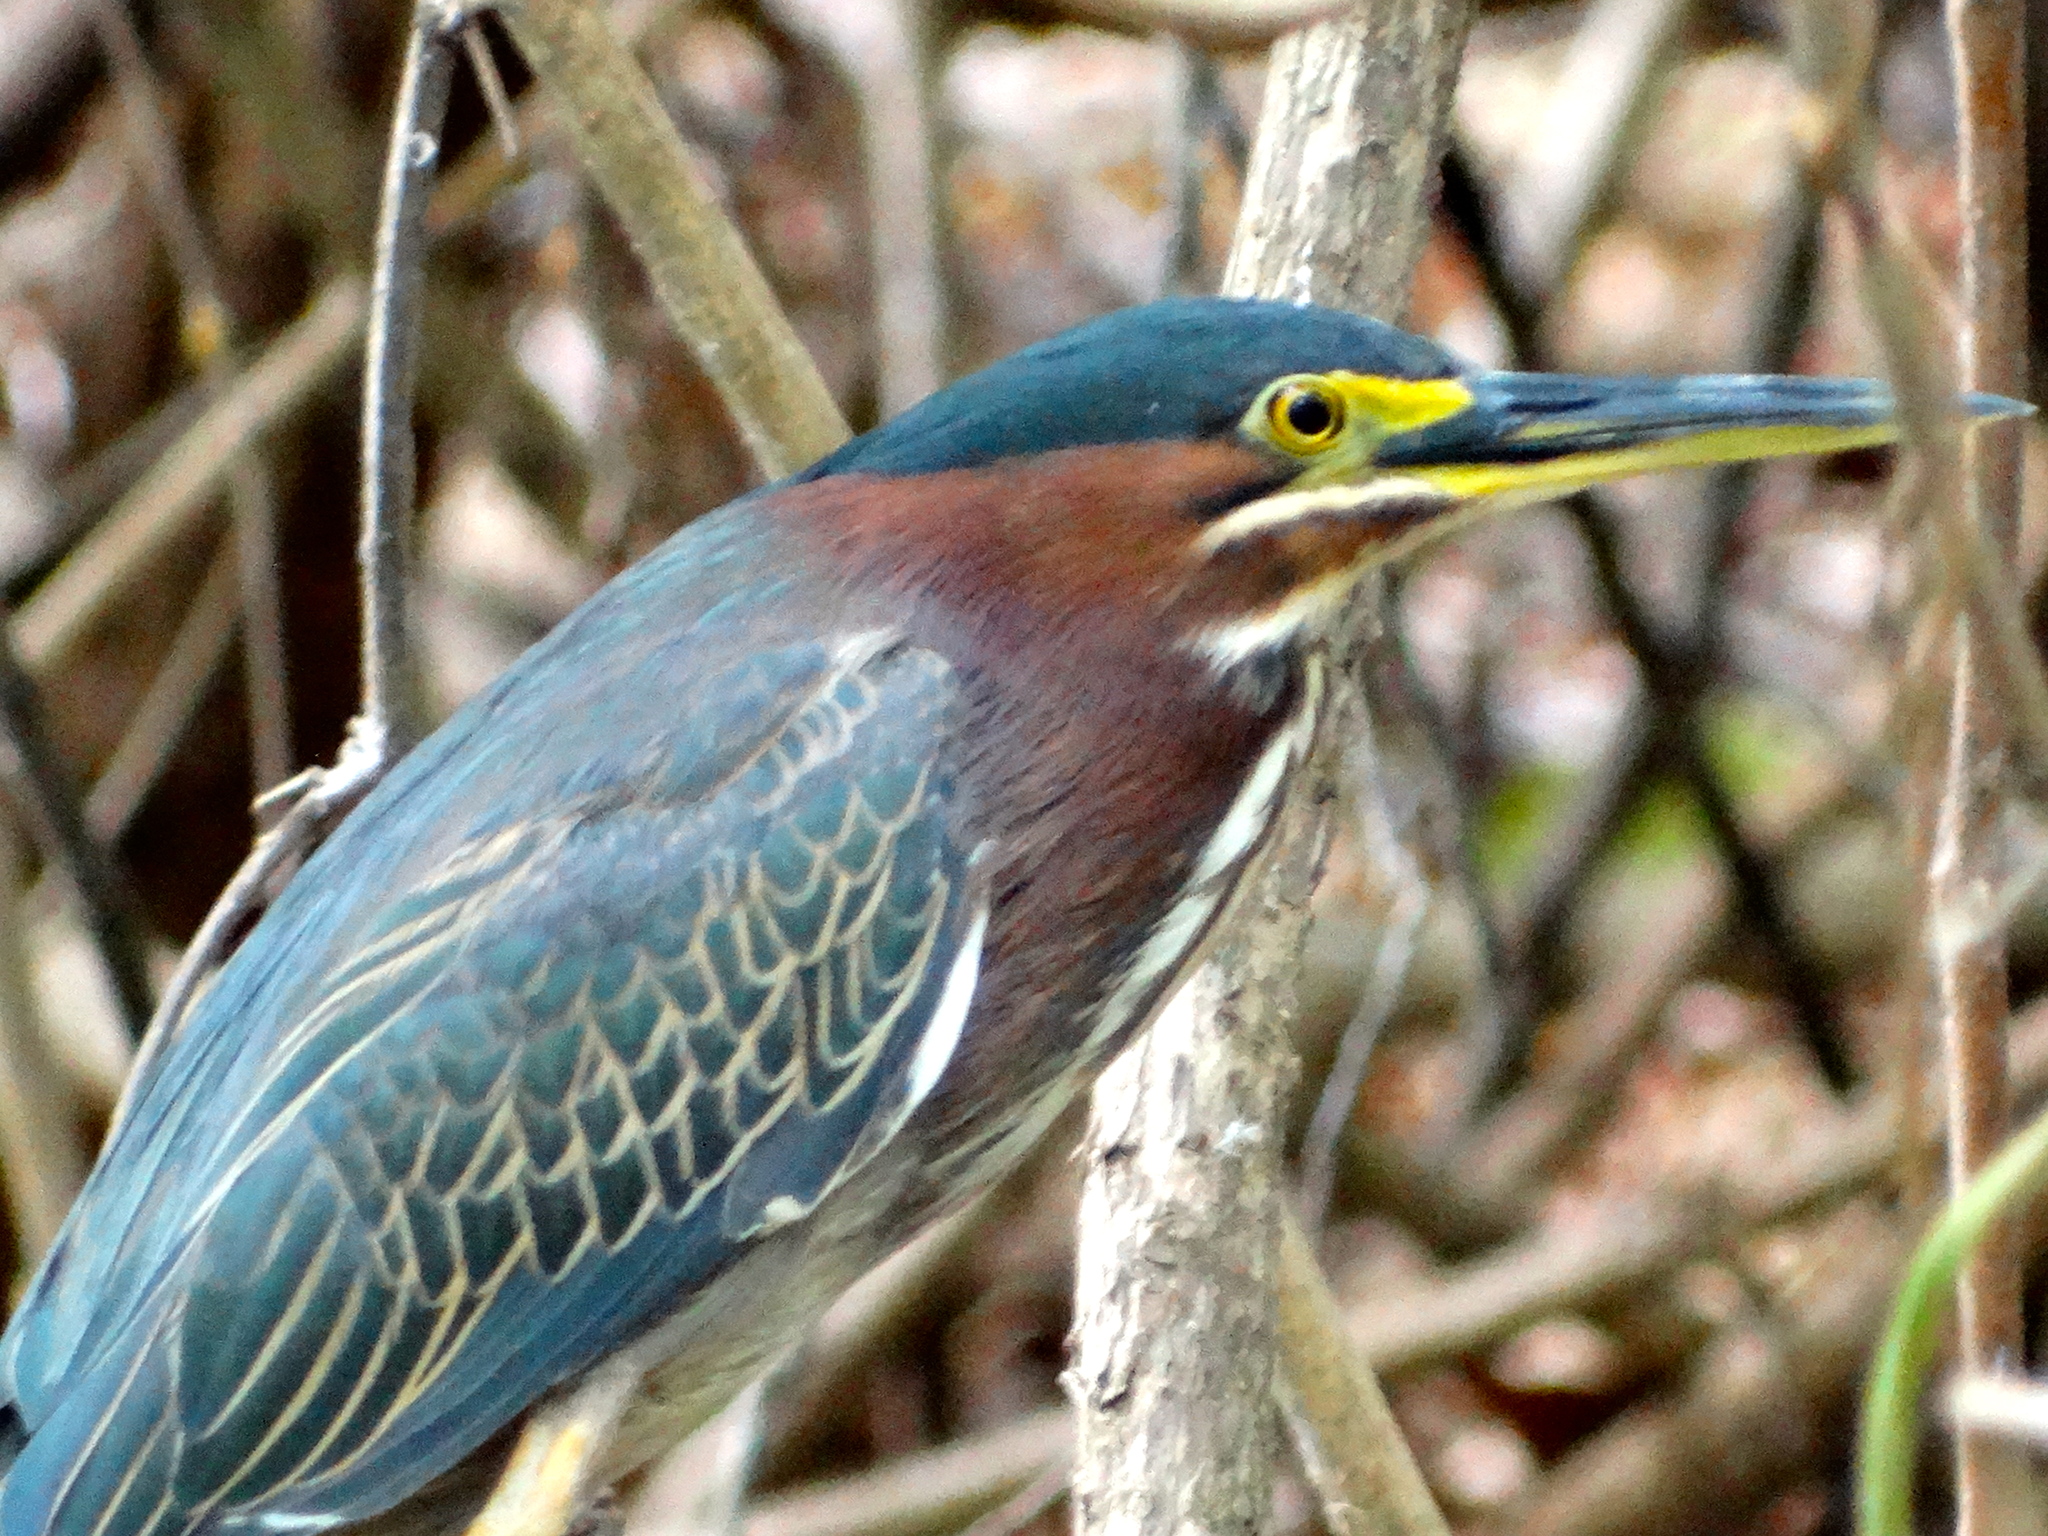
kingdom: Animalia
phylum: Chordata
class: Aves
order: Pelecaniformes
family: Ardeidae
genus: Butorides
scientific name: Butorides virescens
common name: Green heron
